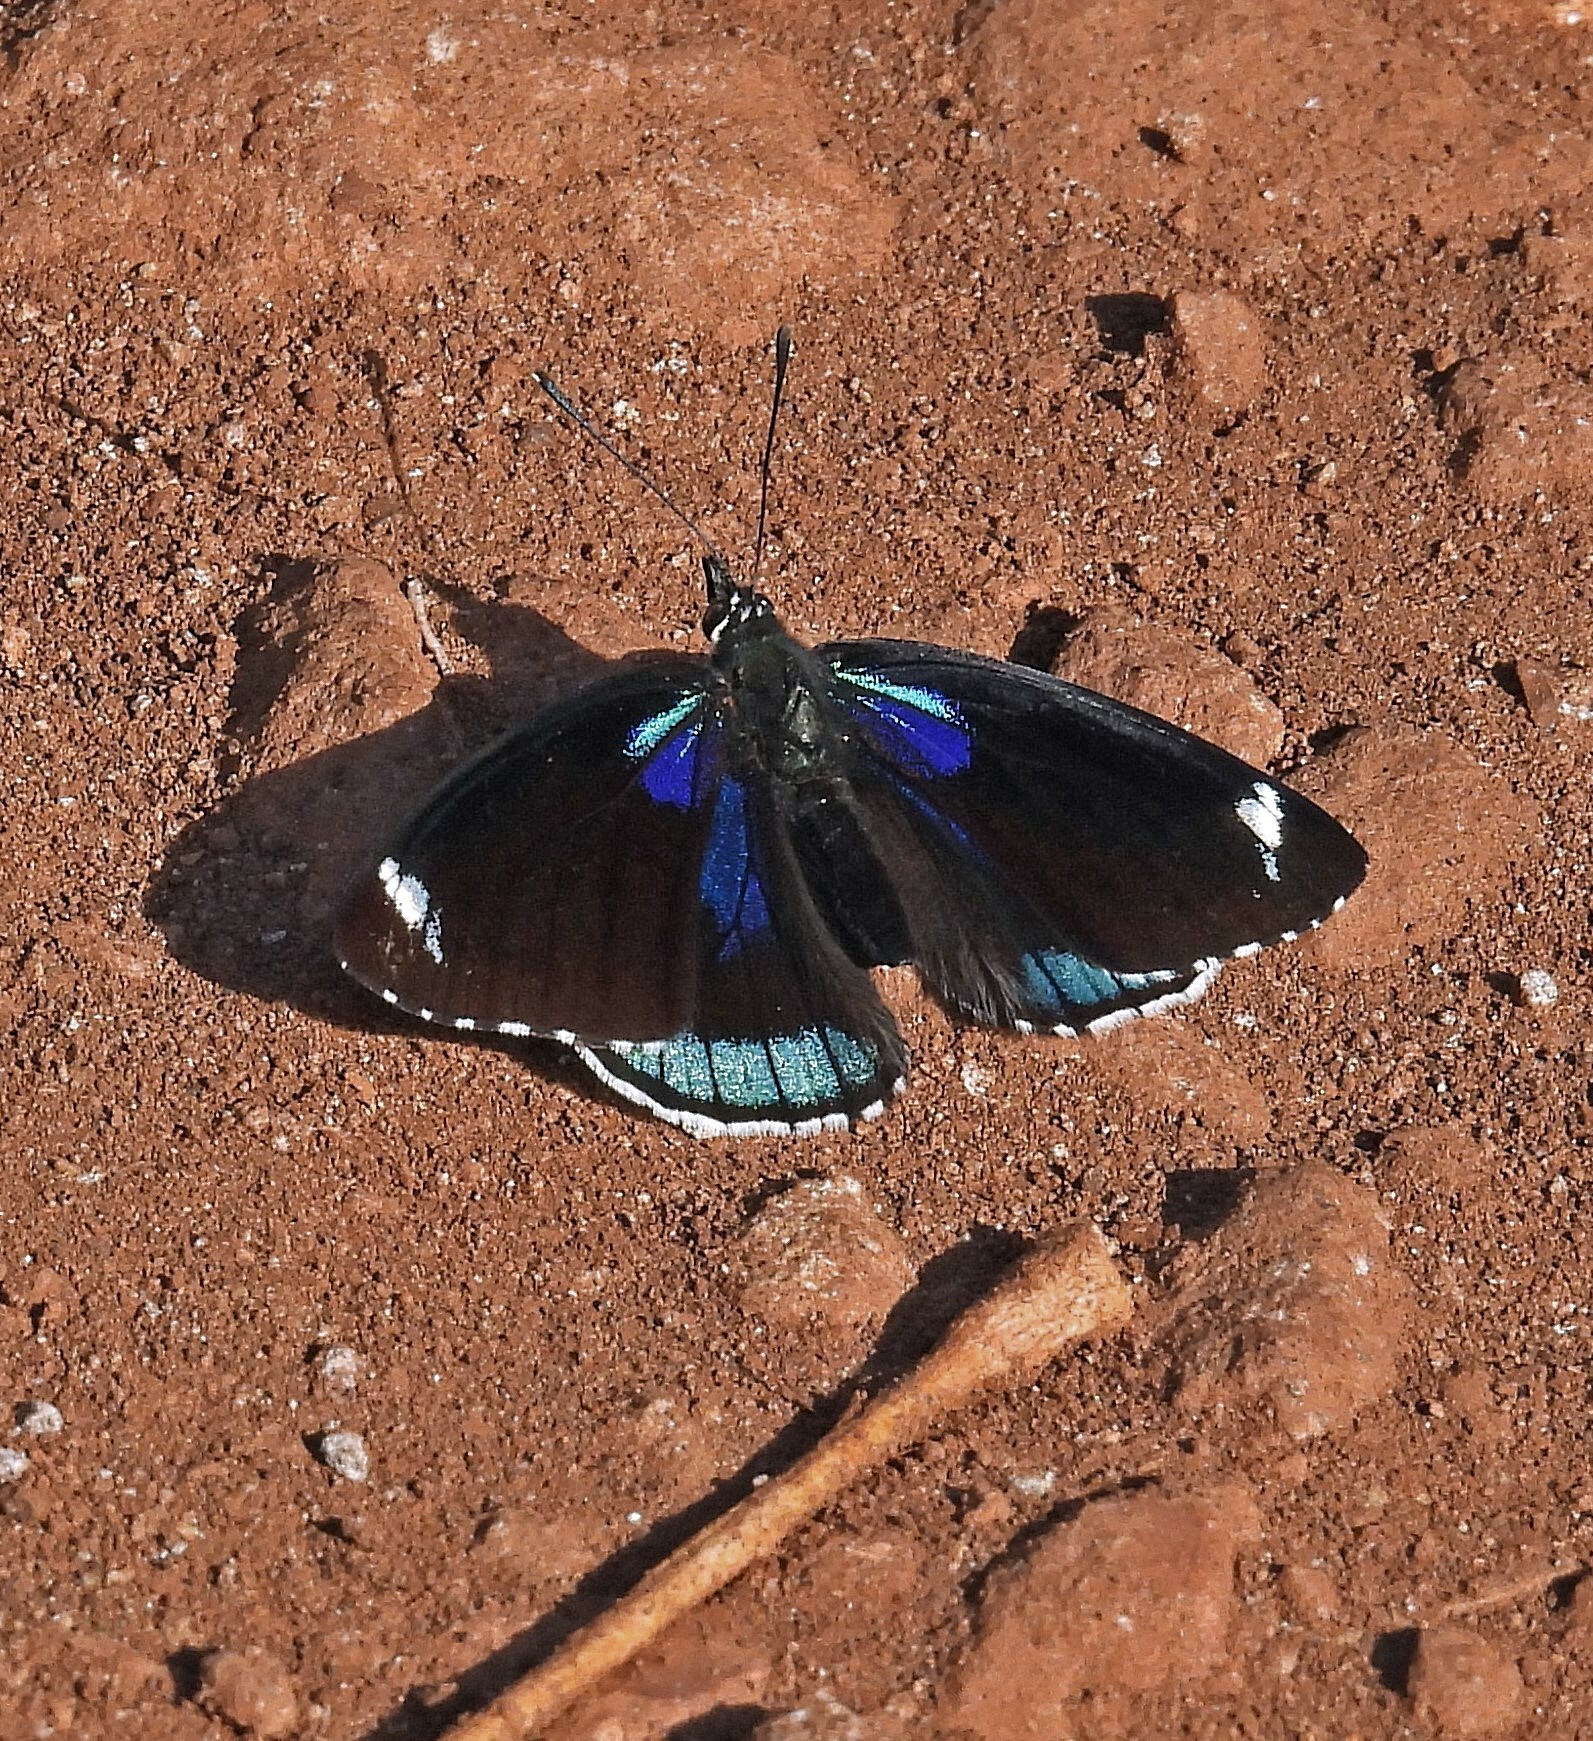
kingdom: Animalia
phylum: Arthropoda
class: Insecta
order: Lepidoptera
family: Nymphalidae
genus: Diaethria
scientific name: Diaethria candrena
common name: Number eighty
